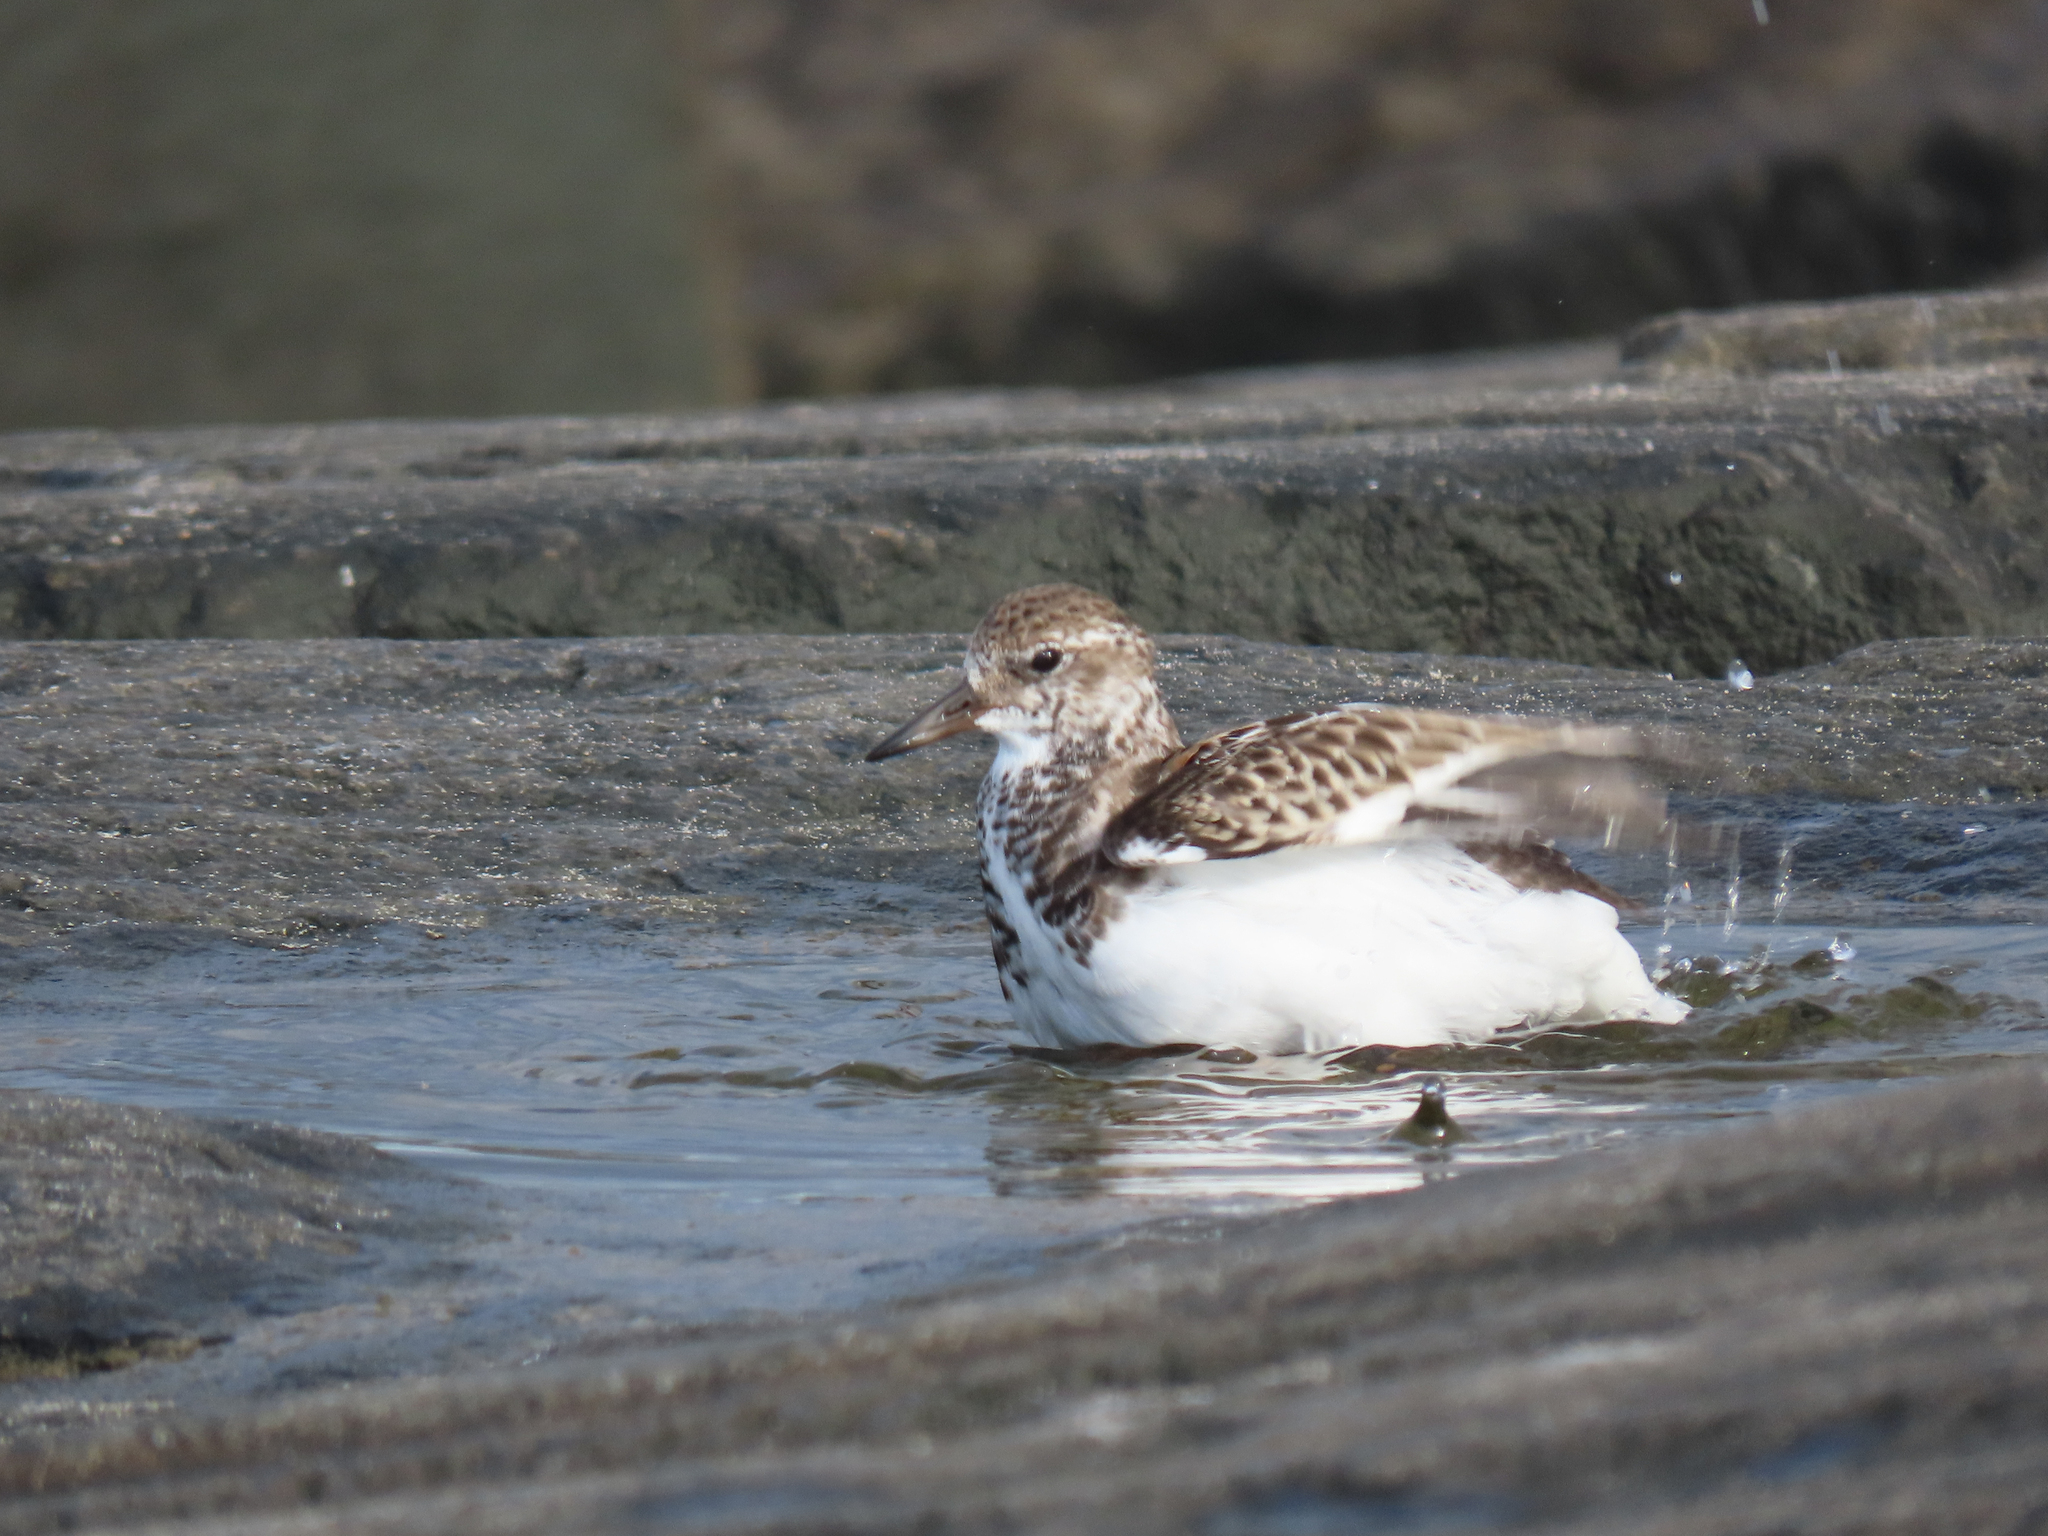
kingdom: Animalia
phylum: Chordata
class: Aves
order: Charadriiformes
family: Scolopacidae
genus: Arenaria
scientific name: Arenaria interpres
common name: Ruddy turnstone
